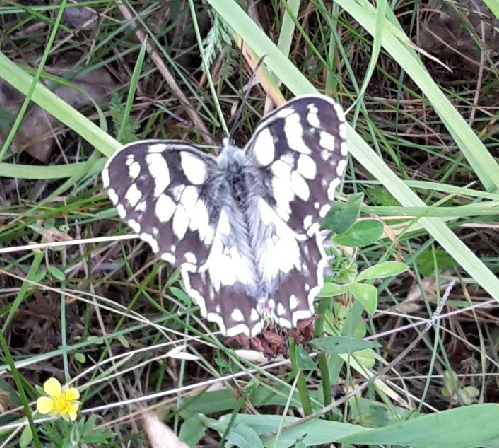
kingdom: Animalia
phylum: Arthropoda
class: Insecta
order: Lepidoptera
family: Nymphalidae
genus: Melanargia
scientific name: Melanargia galathea
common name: Marbled white
